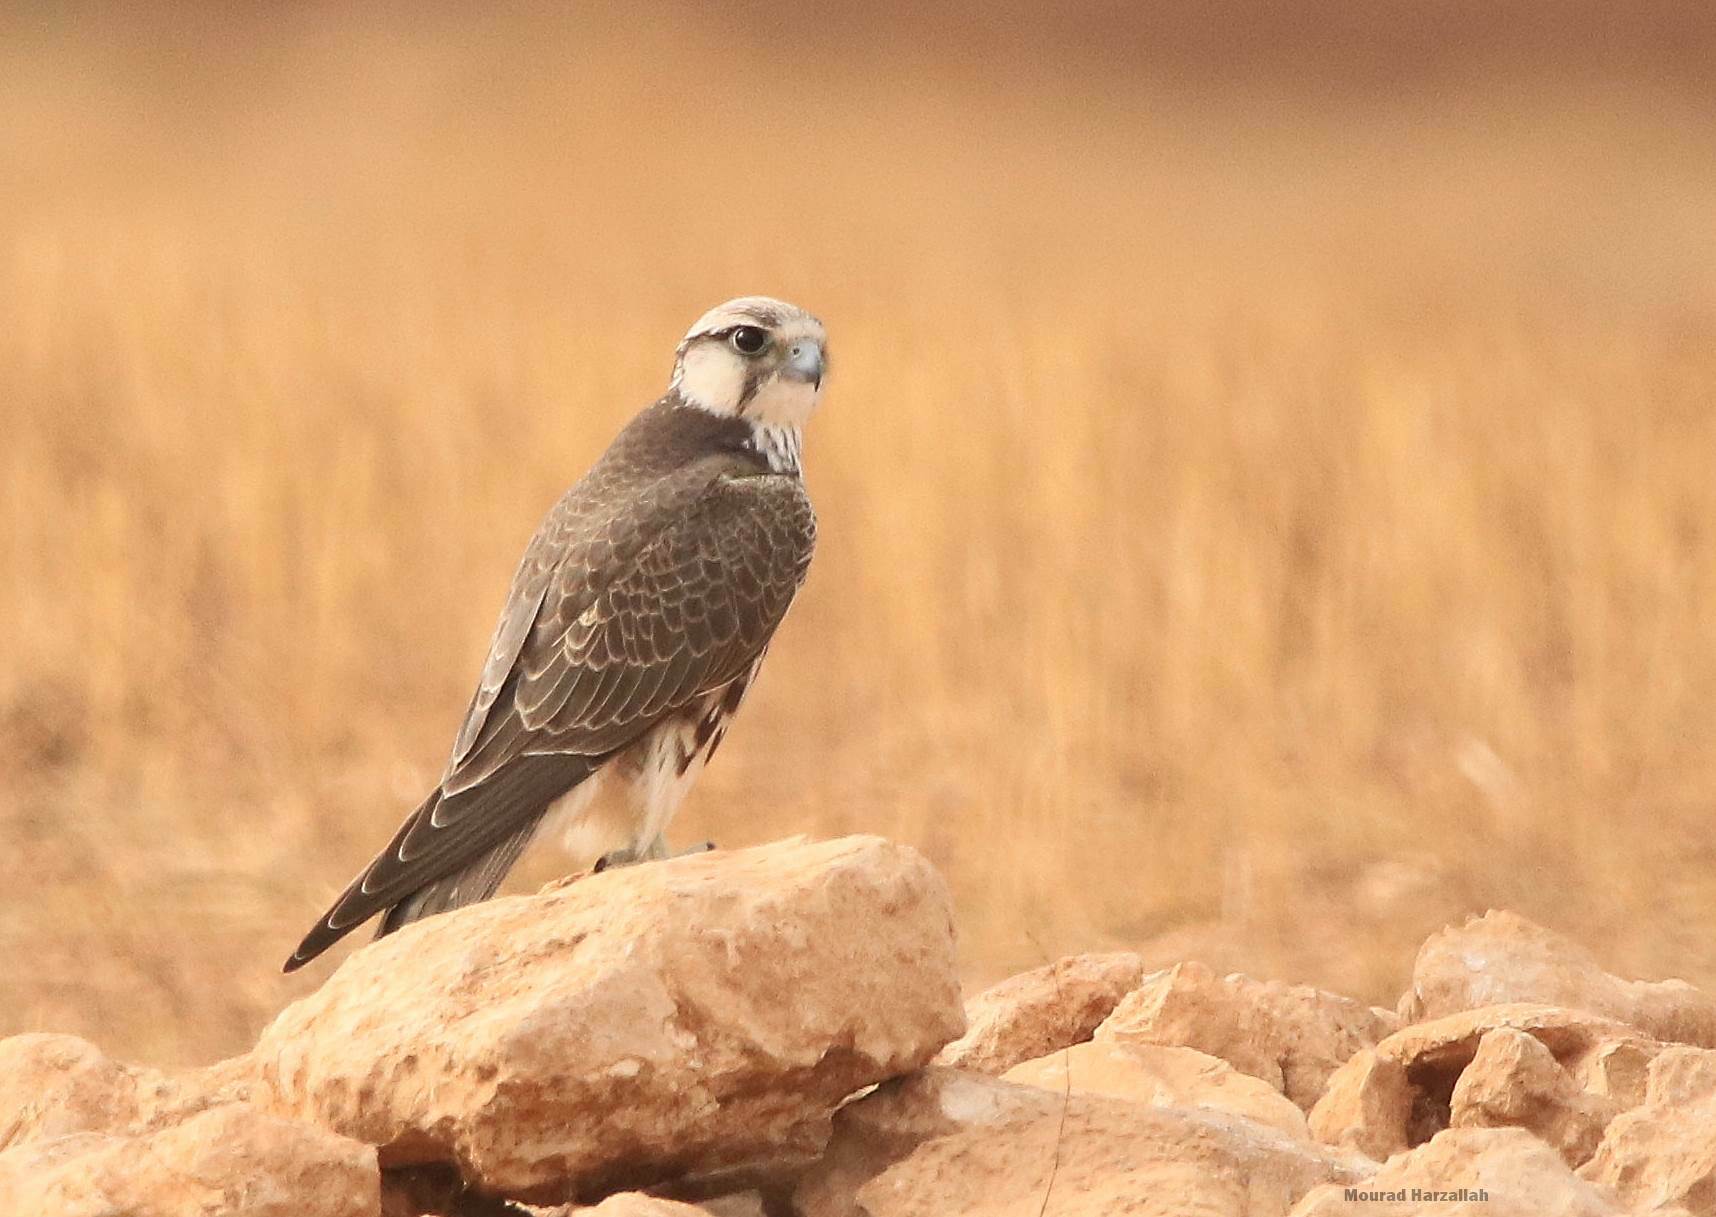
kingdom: Animalia
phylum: Chordata
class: Aves
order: Falconiformes
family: Falconidae
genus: Falco
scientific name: Falco biarmicus
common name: Lanner falcon
